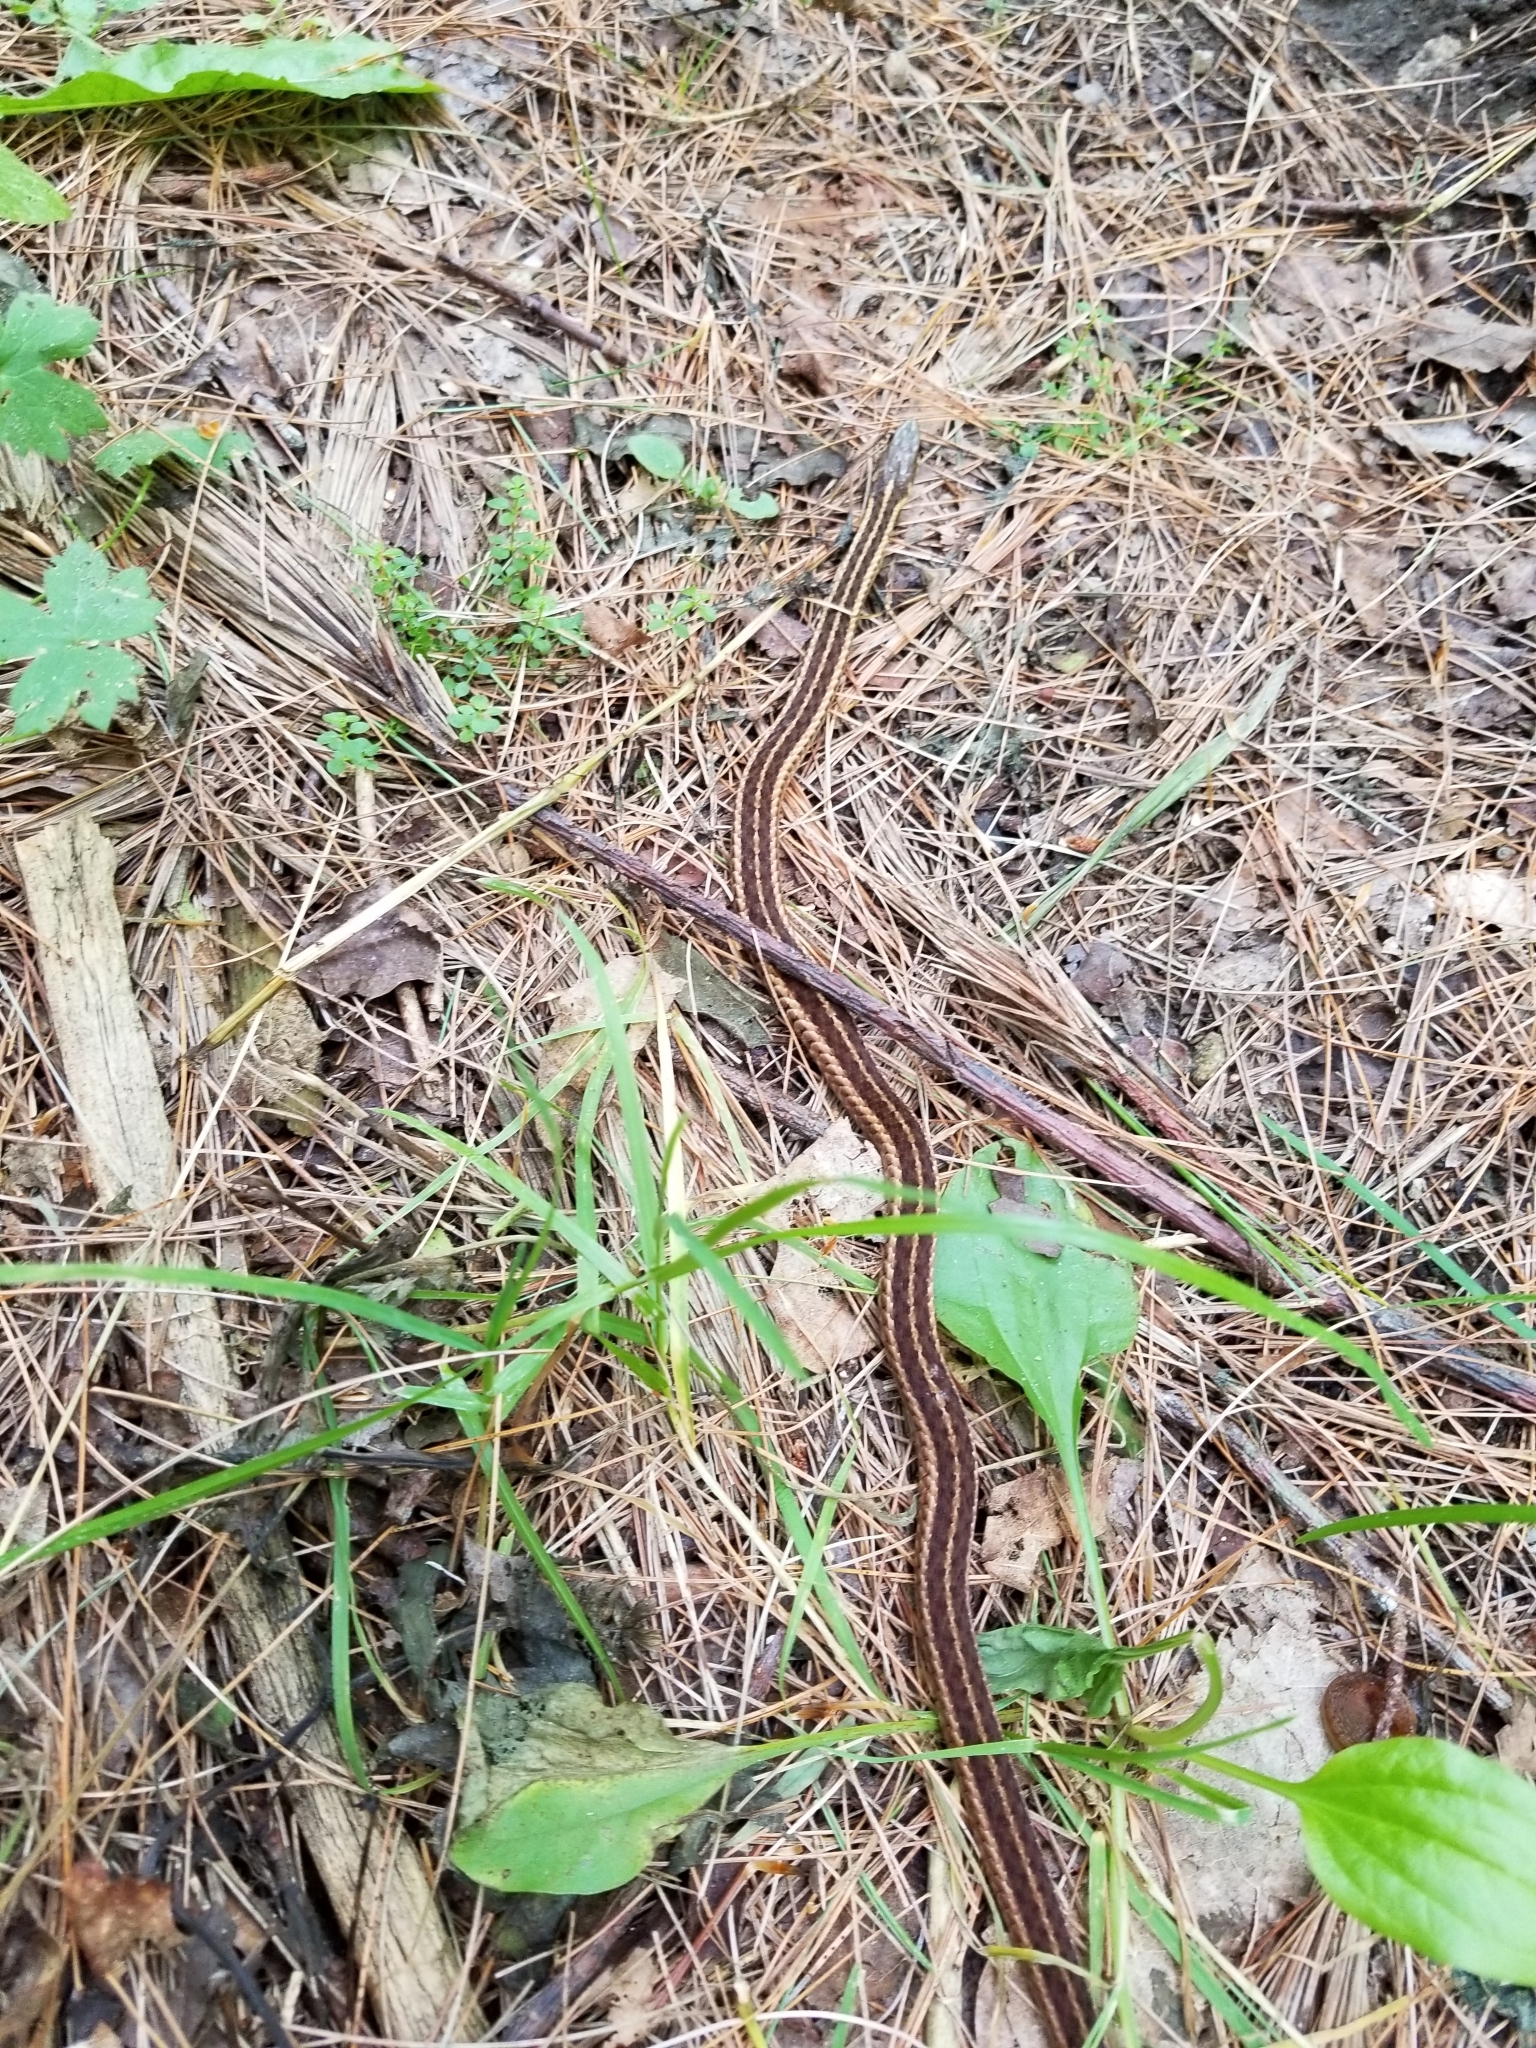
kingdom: Animalia
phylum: Chordata
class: Squamata
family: Colubridae
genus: Thamnophis
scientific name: Thamnophis sirtalis
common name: Common garter snake
